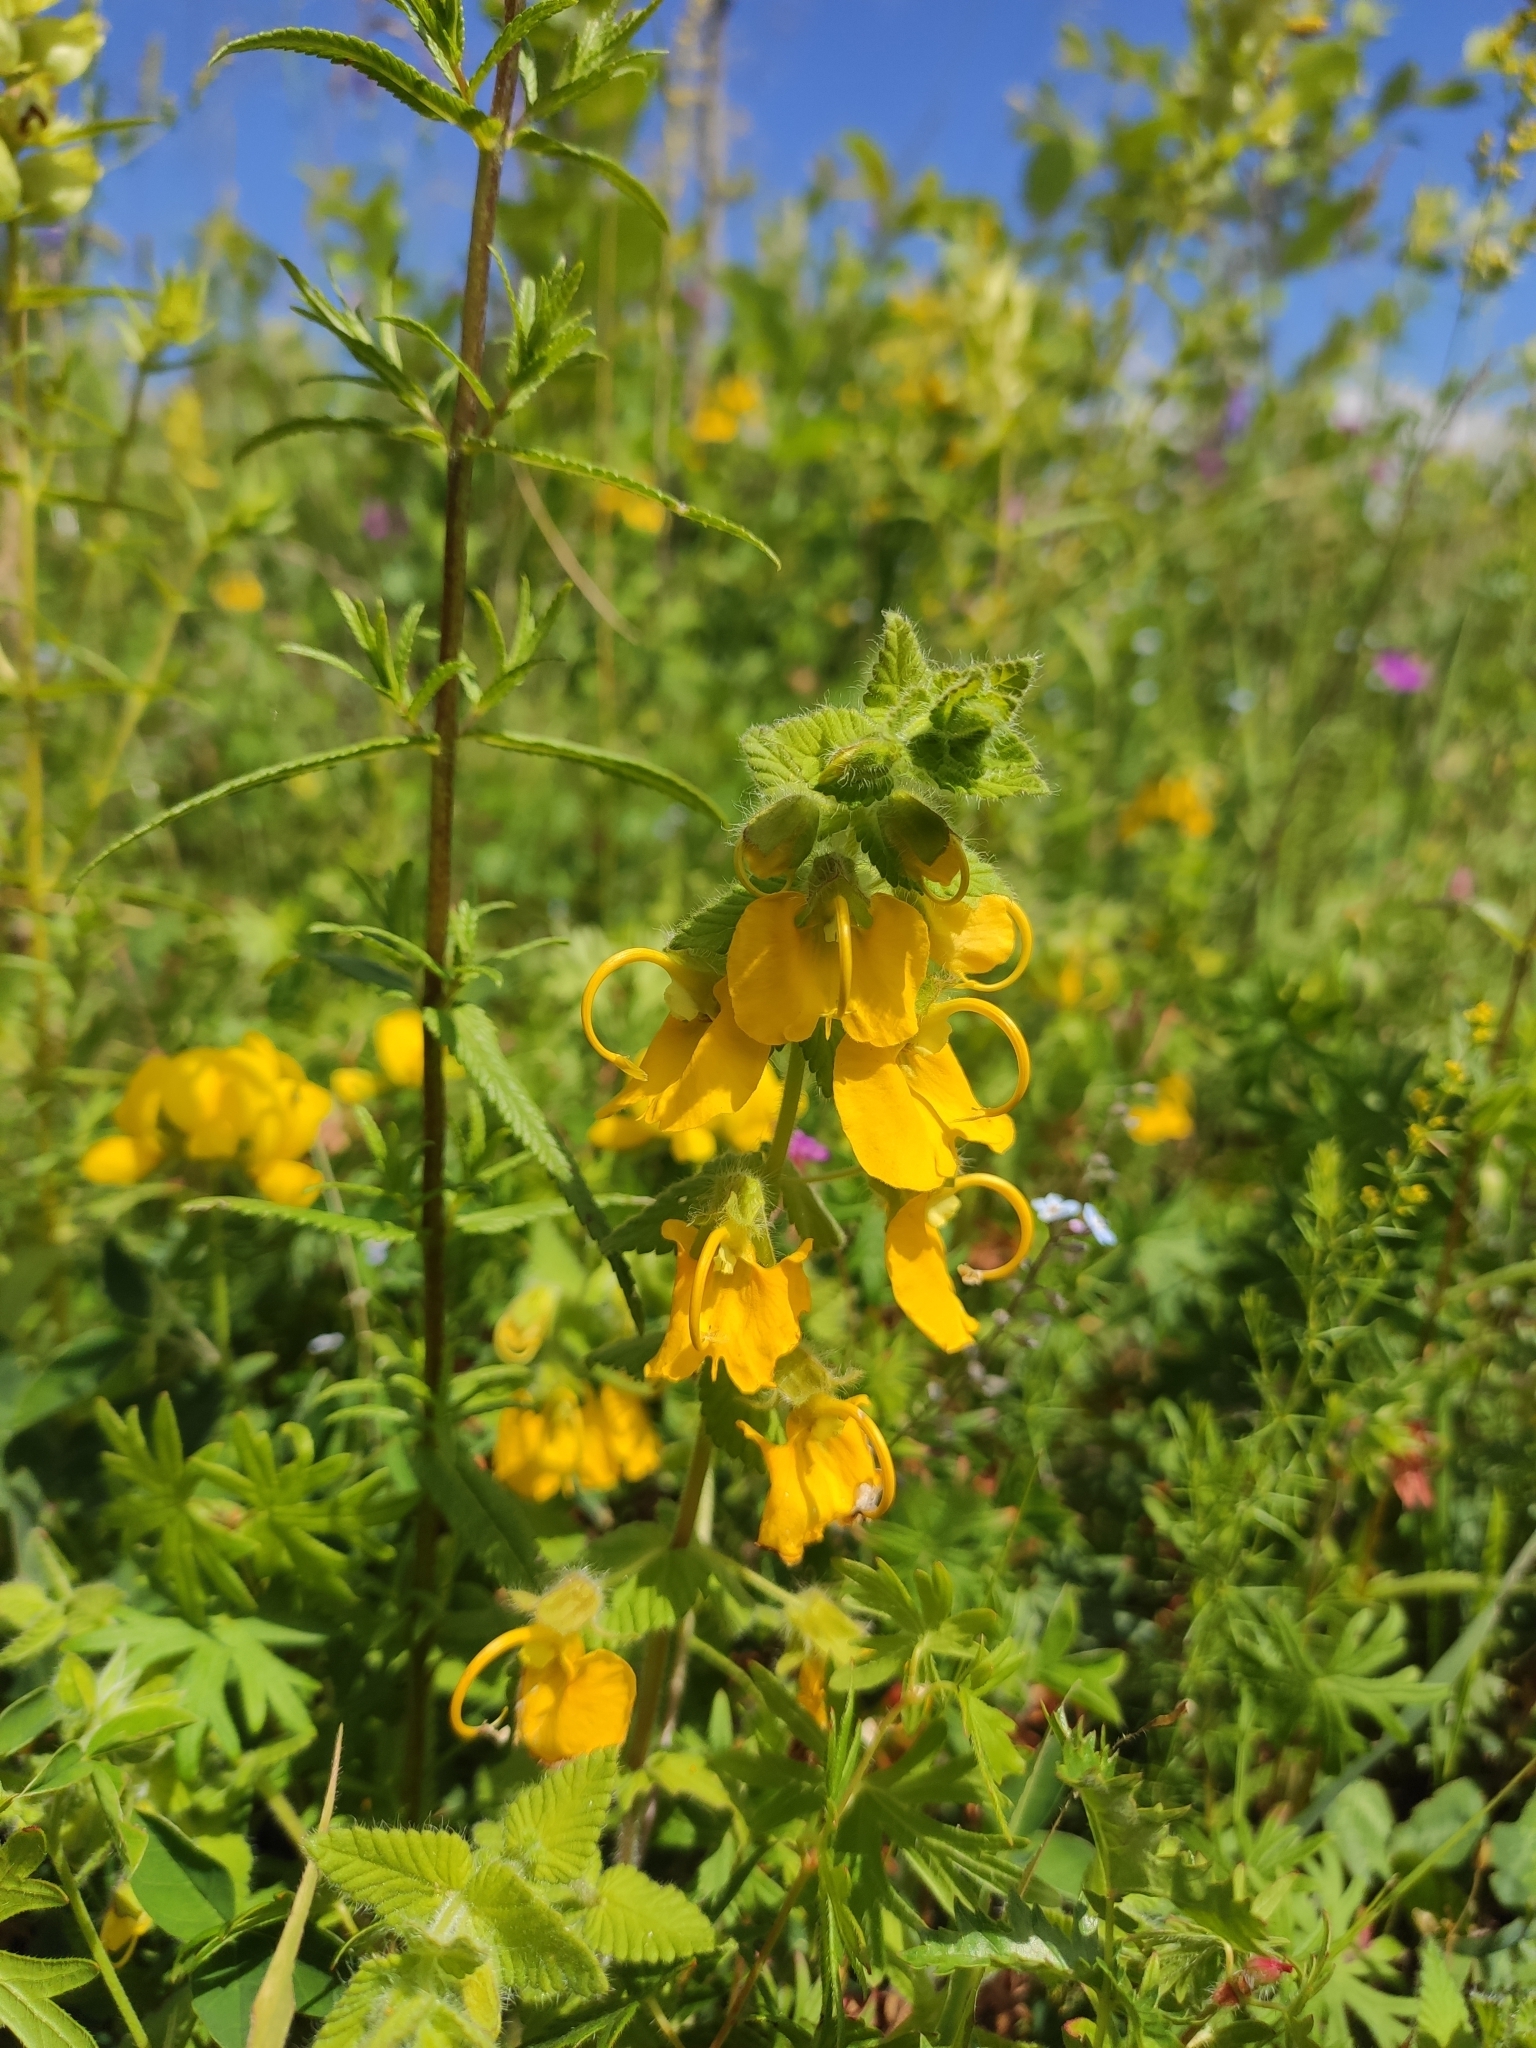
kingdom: Plantae
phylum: Tracheophyta
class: Magnoliopsida
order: Lamiales
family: Orobanchaceae
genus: Rhynchocorys
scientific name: Rhynchocorys orientalis
